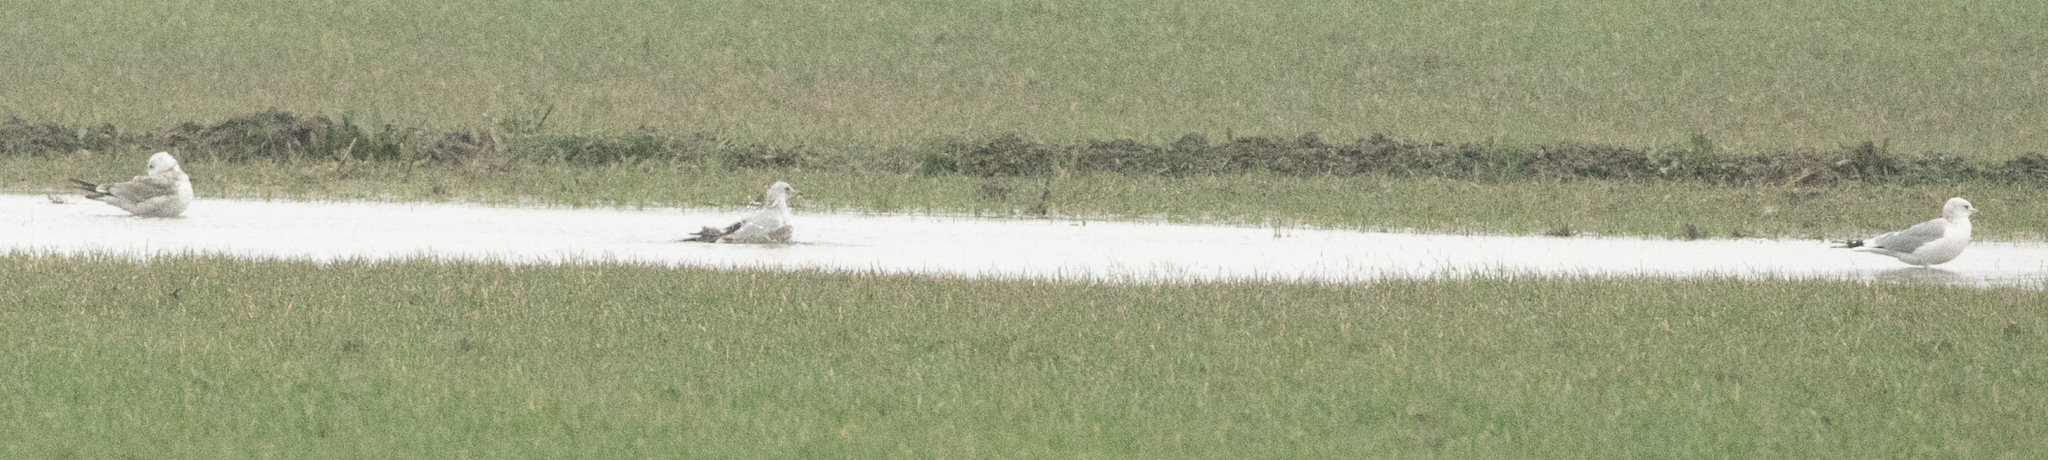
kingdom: Animalia
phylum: Chordata
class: Aves
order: Charadriiformes
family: Laridae
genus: Larus
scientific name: Larus canus
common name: Mew gull
